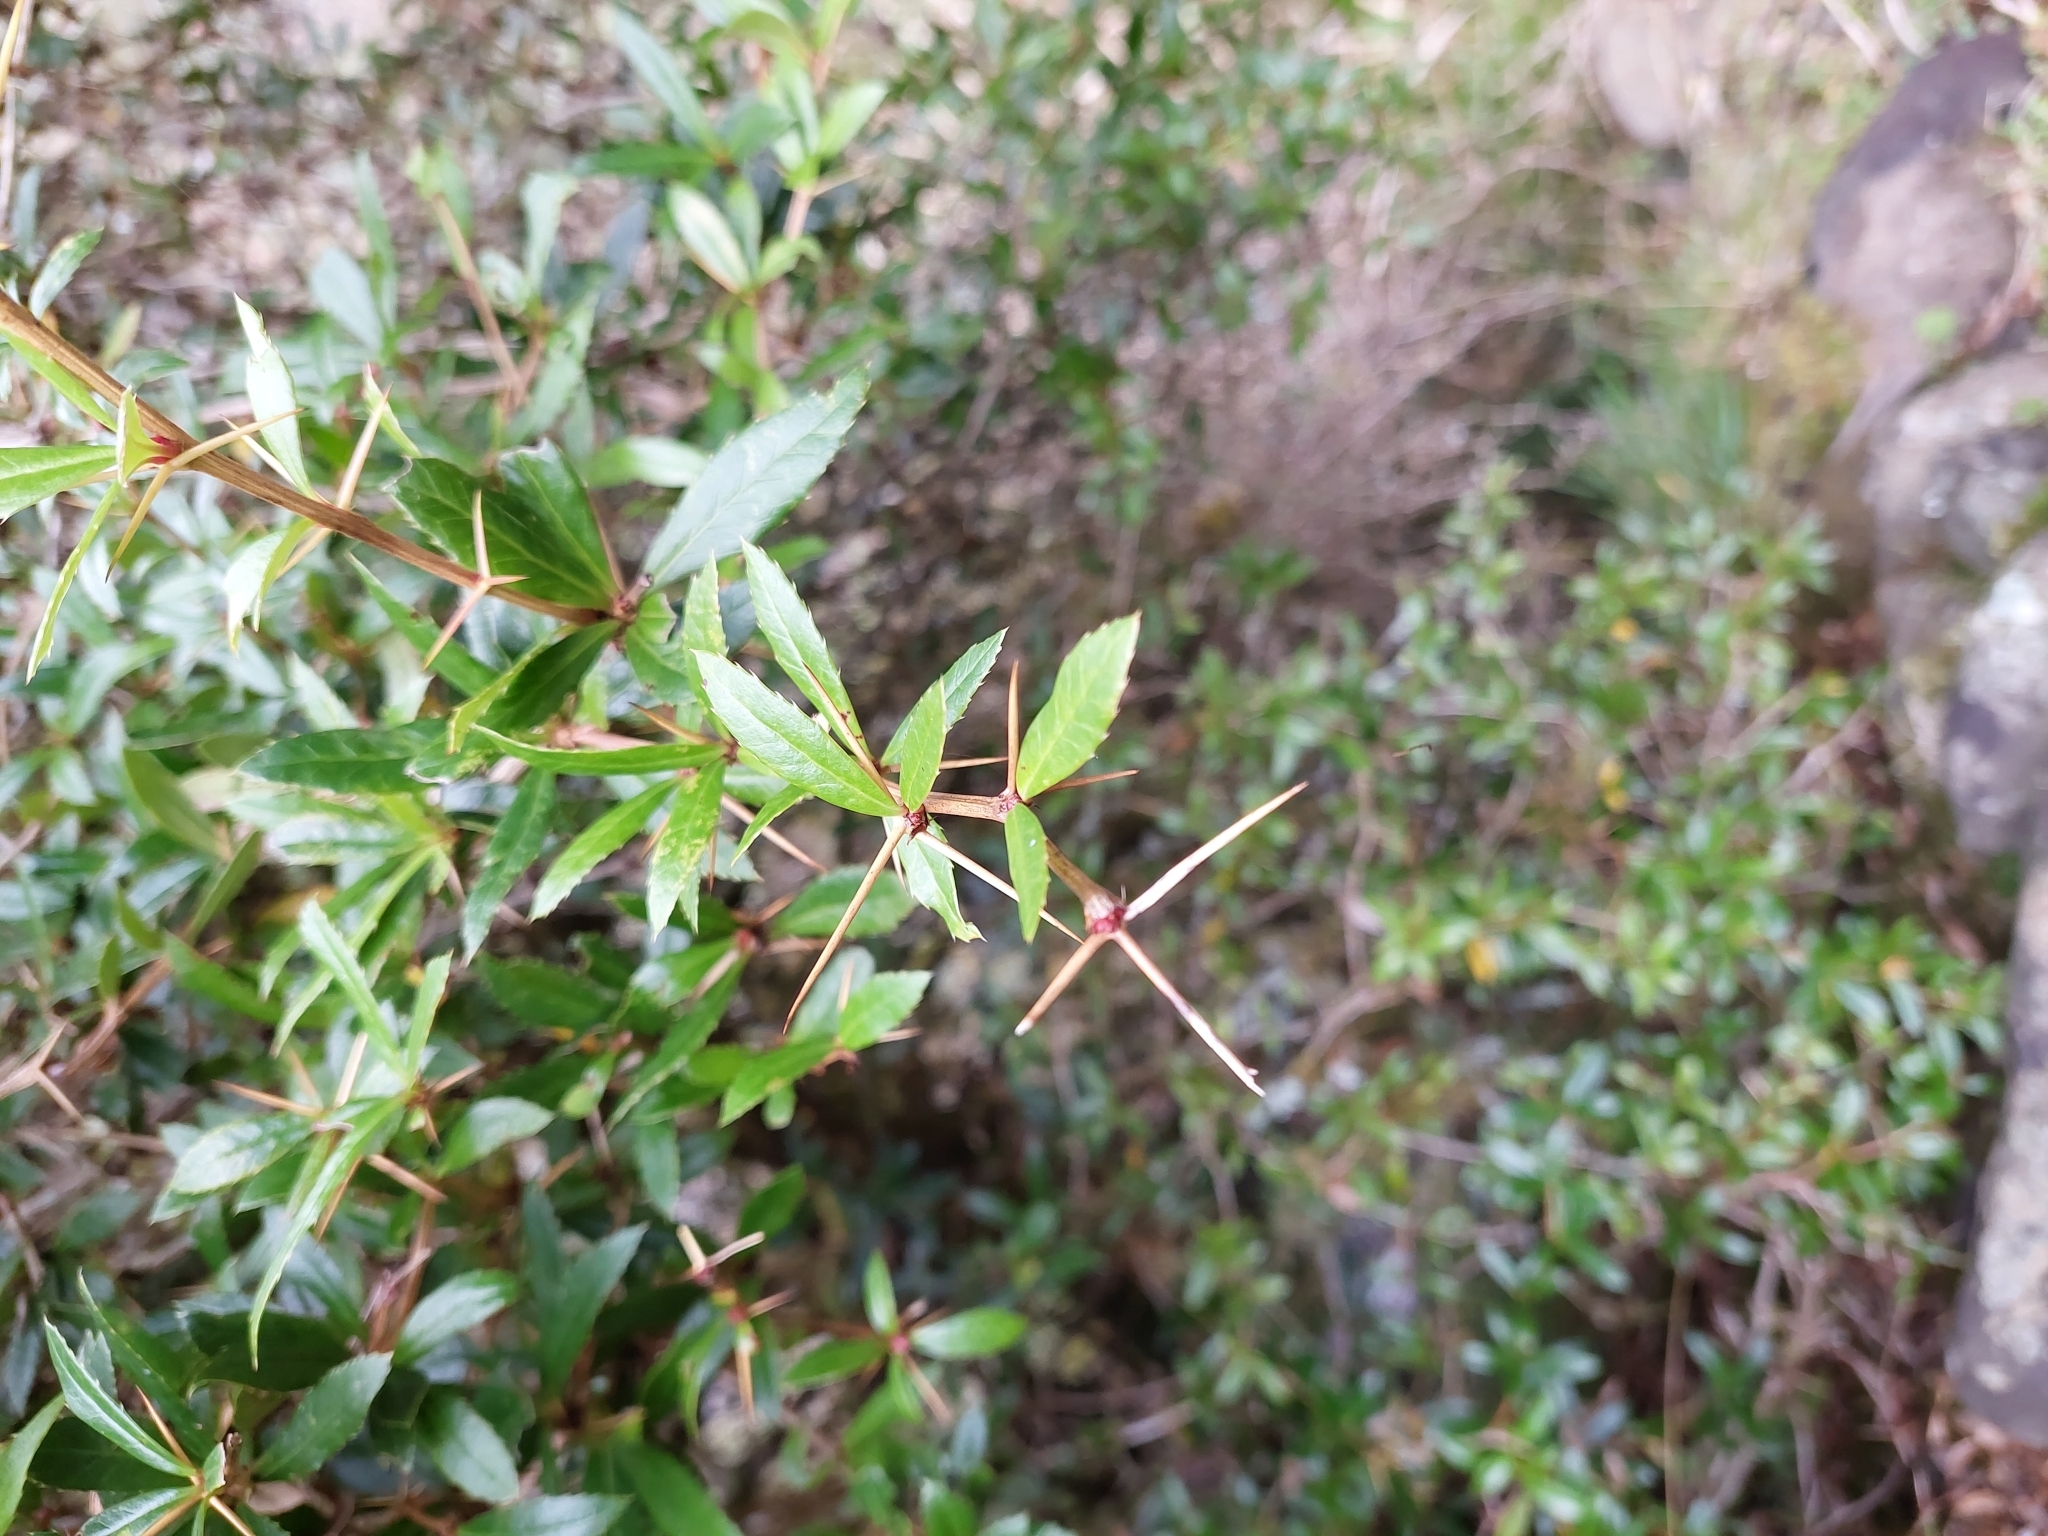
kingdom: Plantae
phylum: Tracheophyta
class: Magnoliopsida
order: Ranunculales
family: Berberidaceae
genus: Berberis
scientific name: Berberis kawakamii
